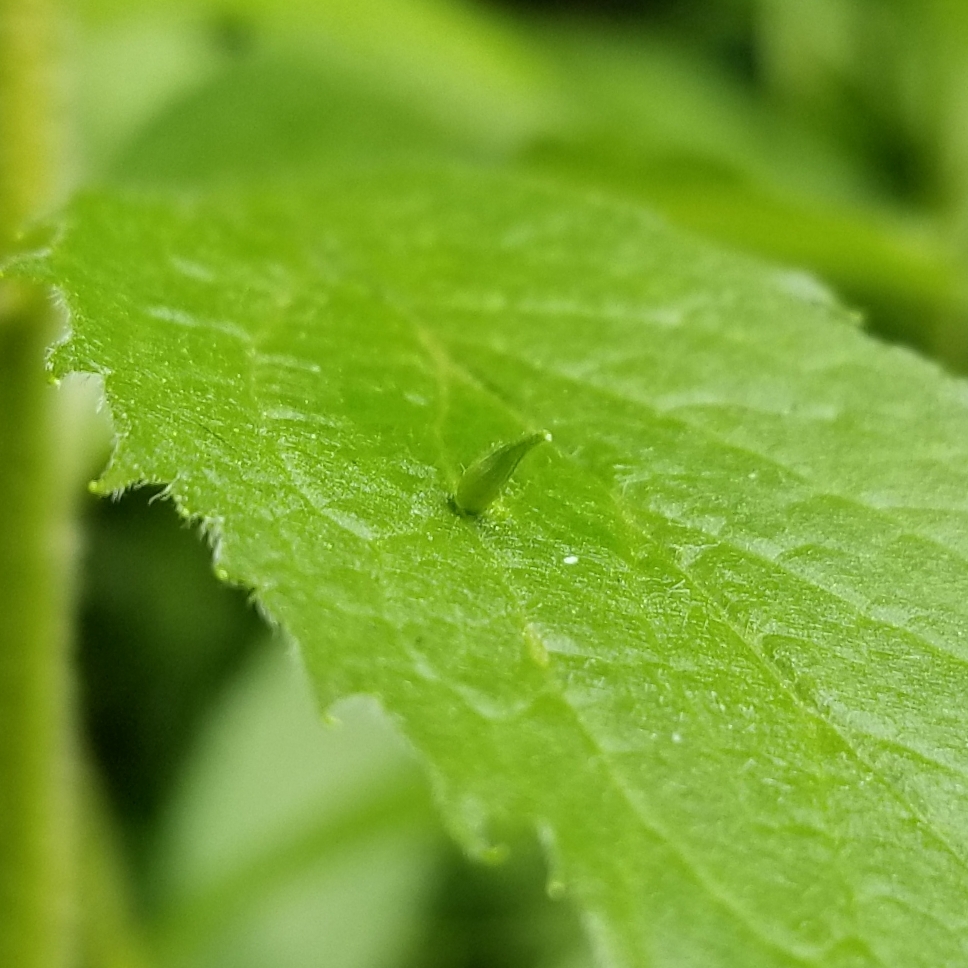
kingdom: Animalia
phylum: Arthropoda
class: Insecta
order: Diptera
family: Cecidomyiidae
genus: Rhopalomyia
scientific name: Rhopalomyia clarkei
